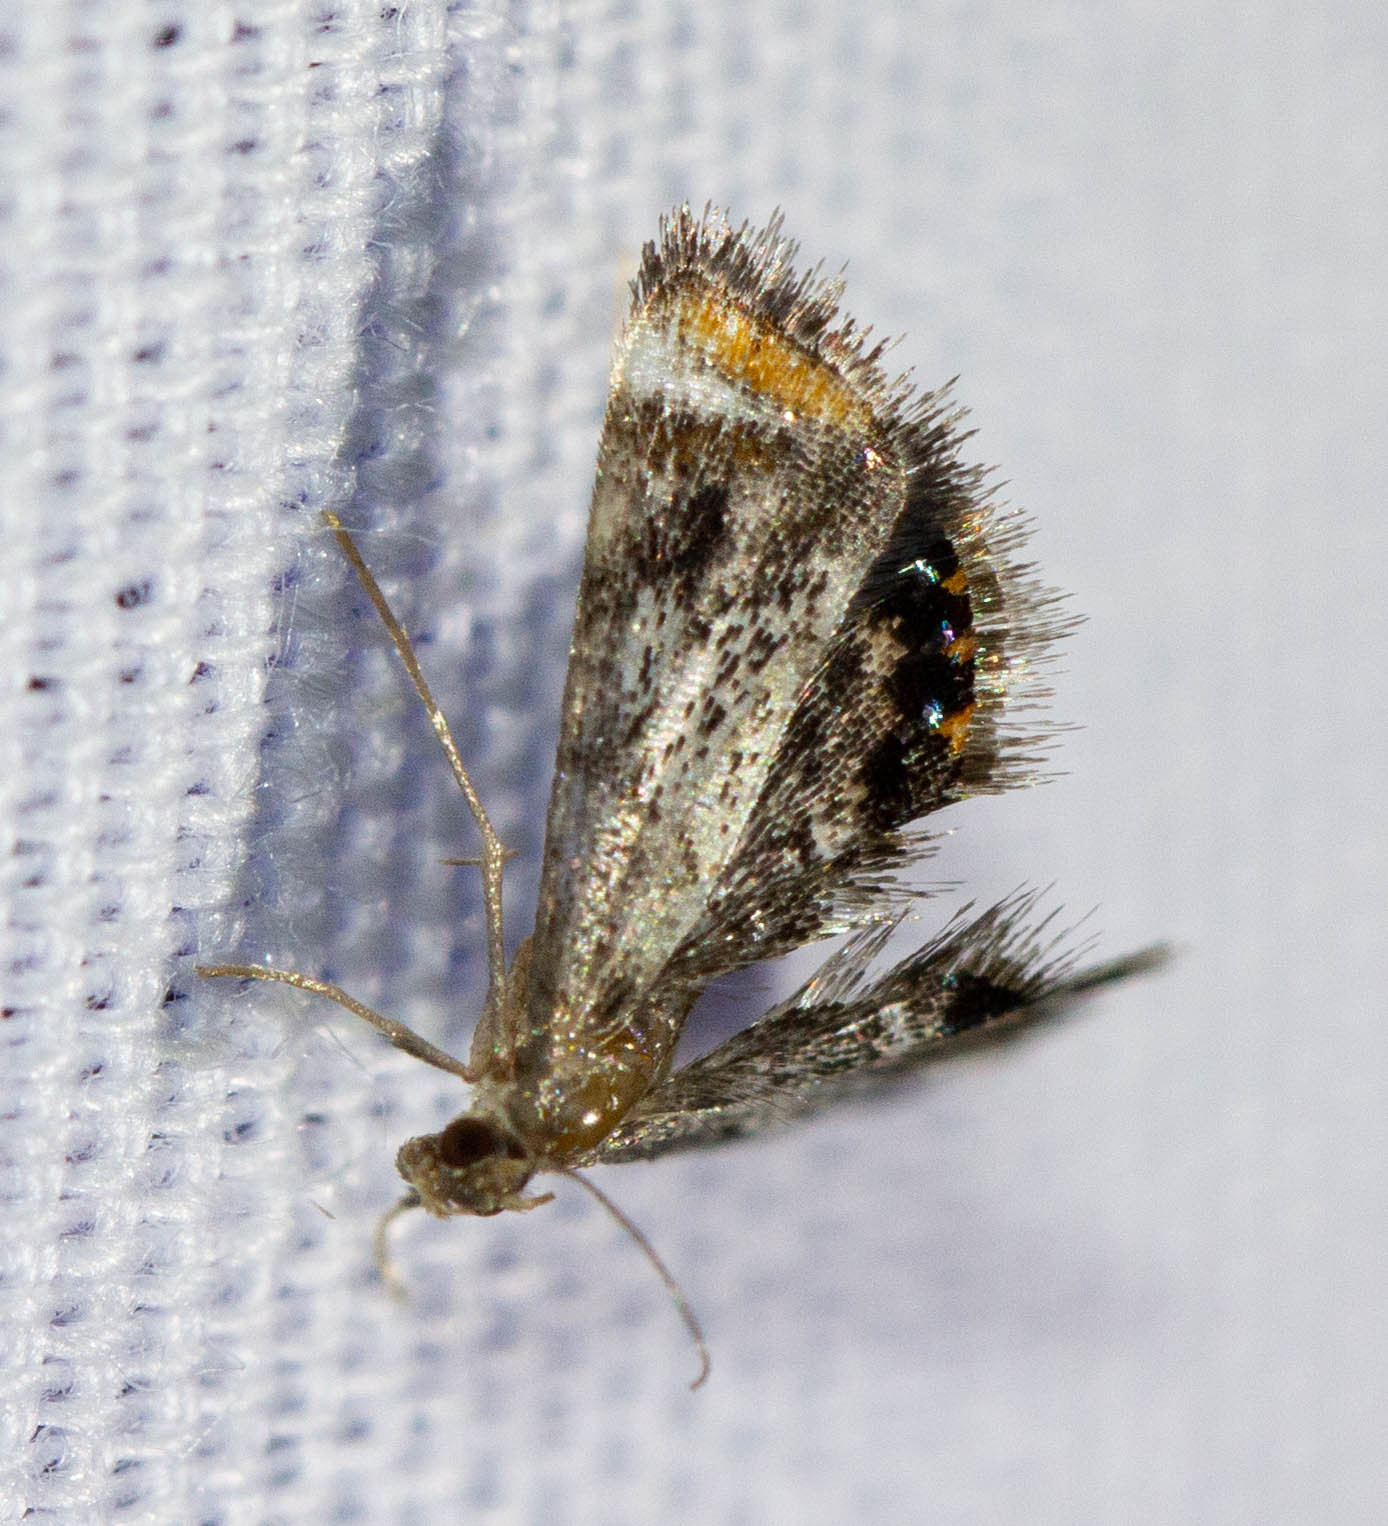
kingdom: Animalia
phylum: Arthropoda
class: Insecta
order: Lepidoptera
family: Crambidae
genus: Chrysendeton
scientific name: Chrysendeton nigrescens
